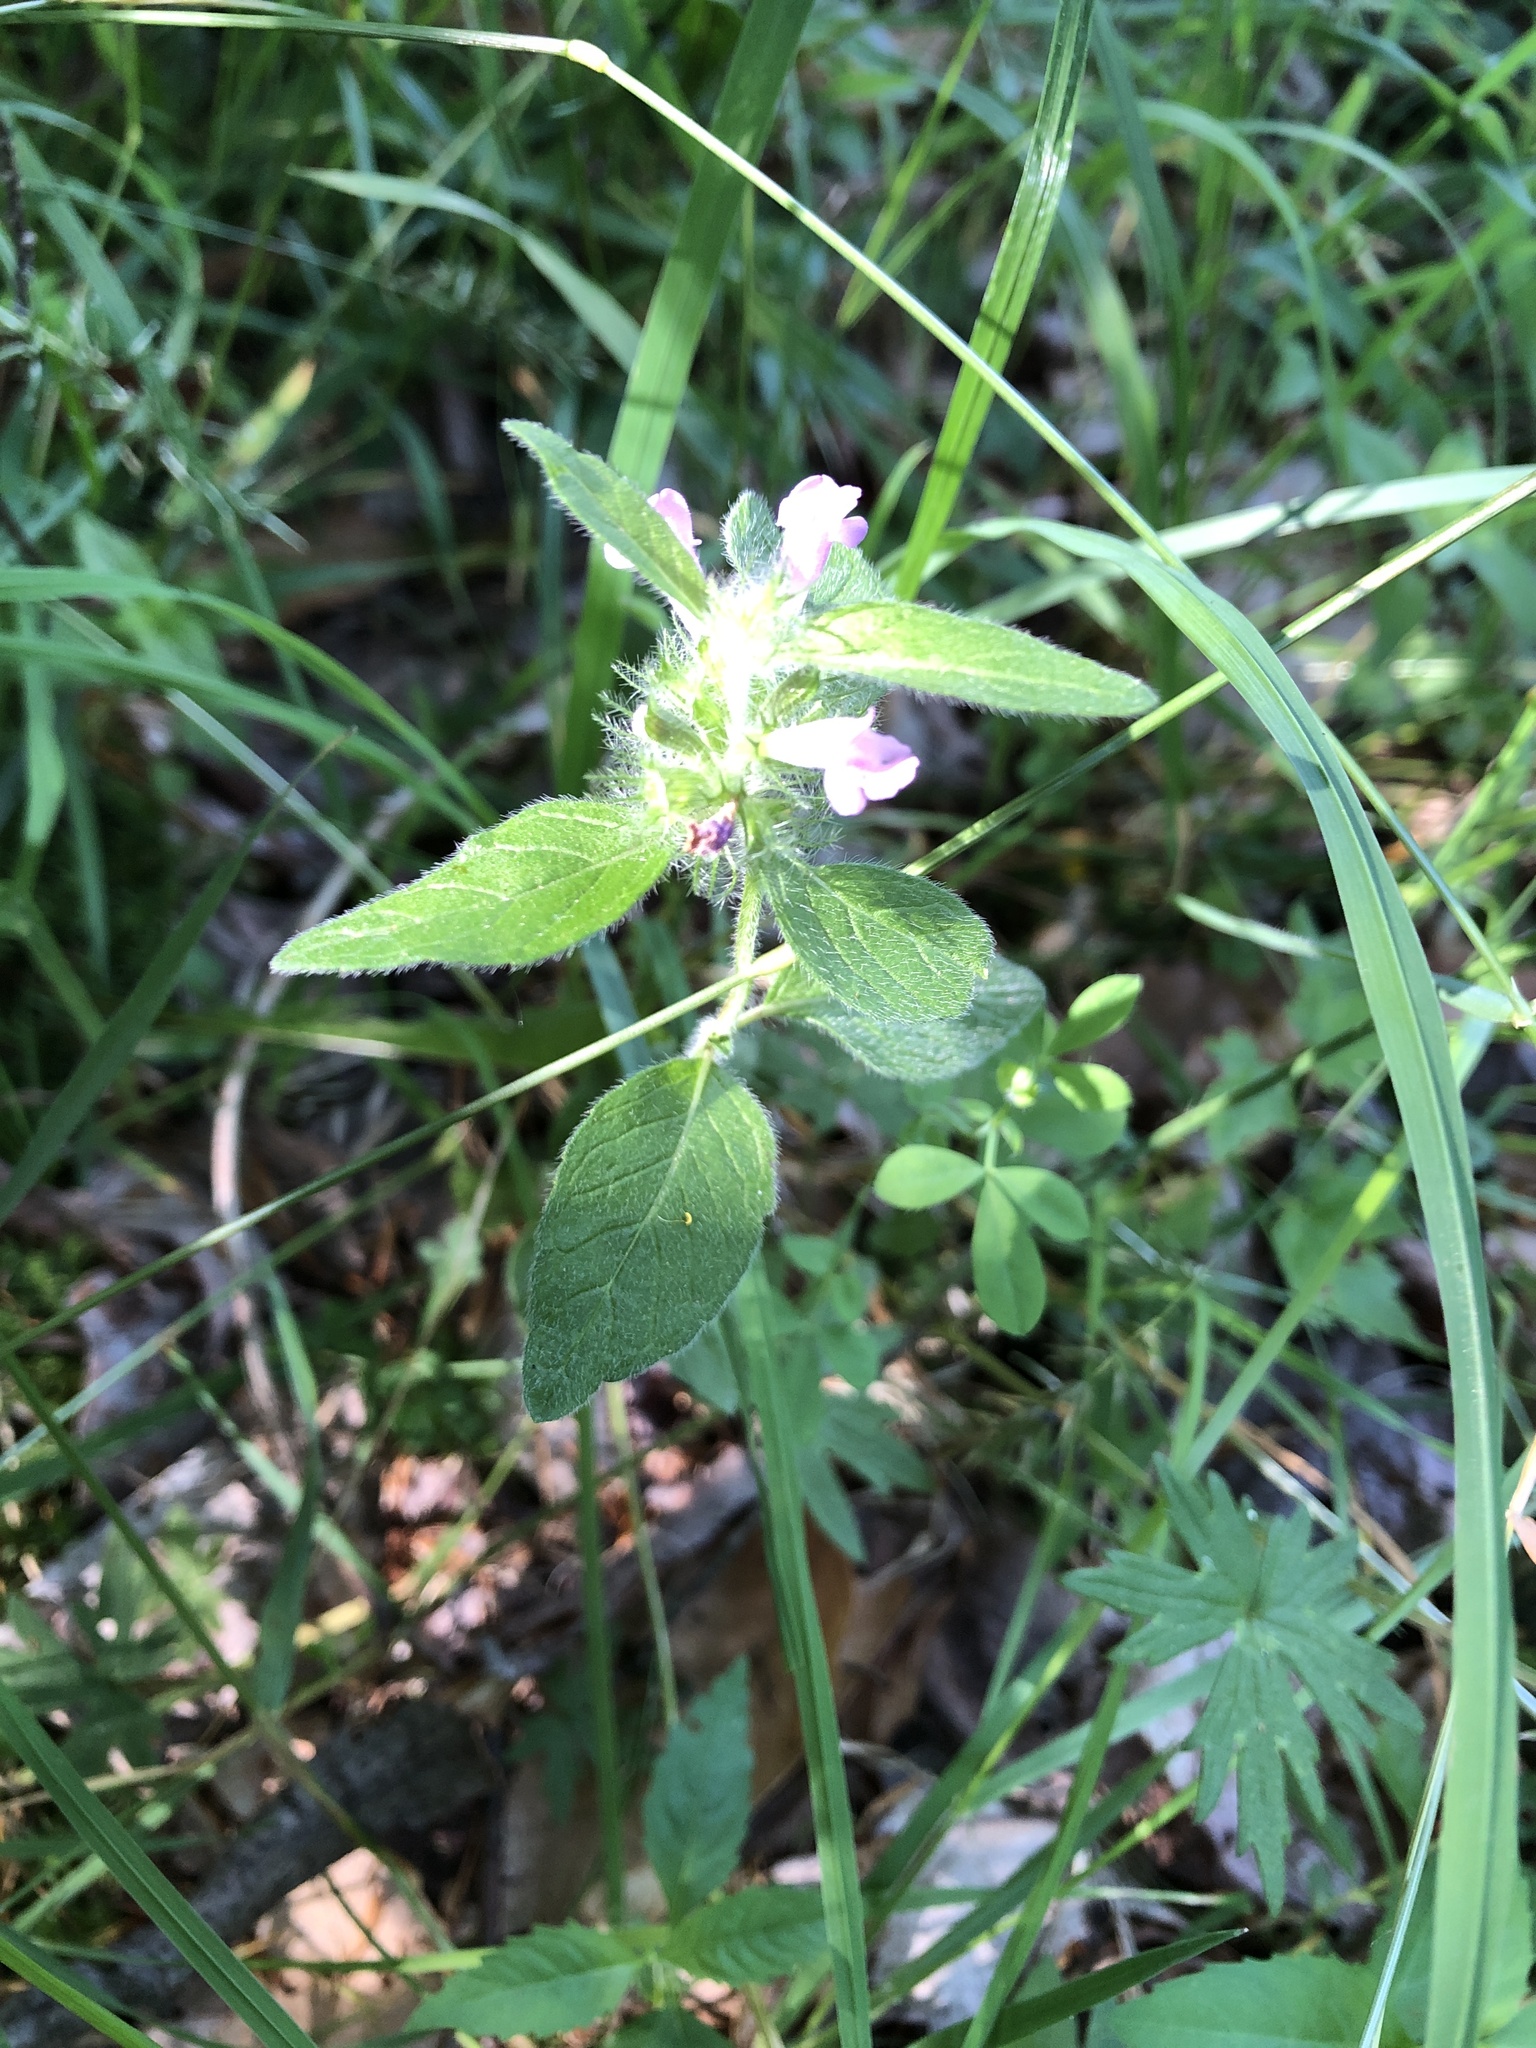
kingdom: Plantae
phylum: Tracheophyta
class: Magnoliopsida
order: Lamiales
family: Lamiaceae
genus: Clinopodium
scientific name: Clinopodium vulgare
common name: Wild basil
